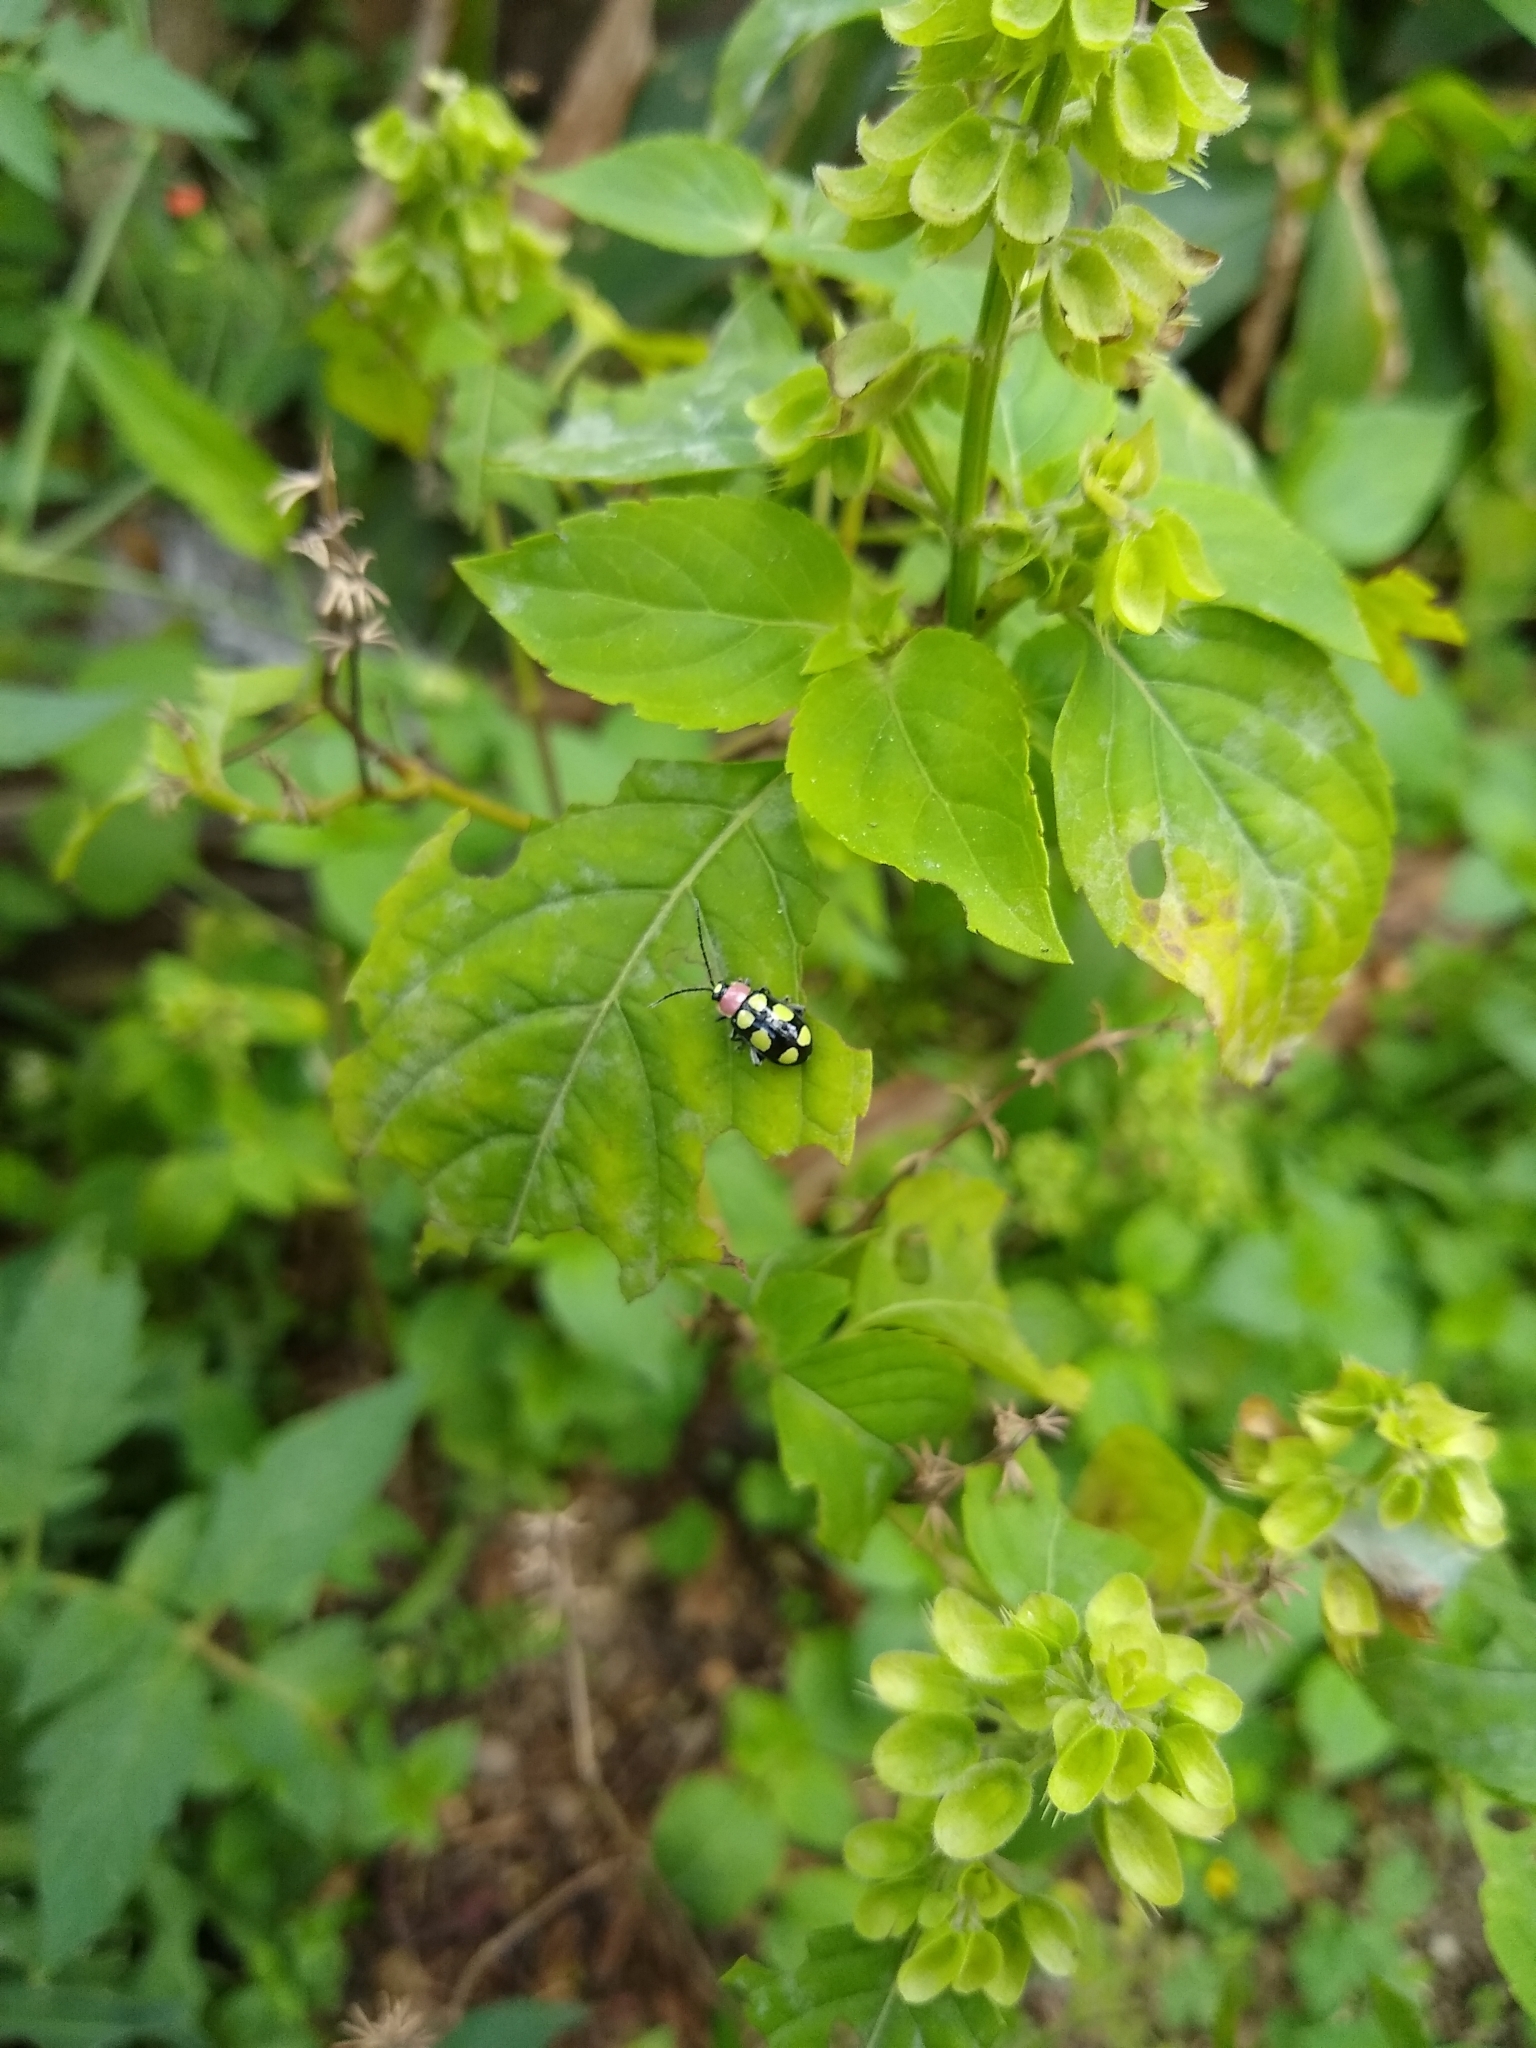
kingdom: Animalia
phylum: Arthropoda
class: Insecta
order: Coleoptera
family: Chrysomelidae
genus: Omophoita
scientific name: Omophoita
